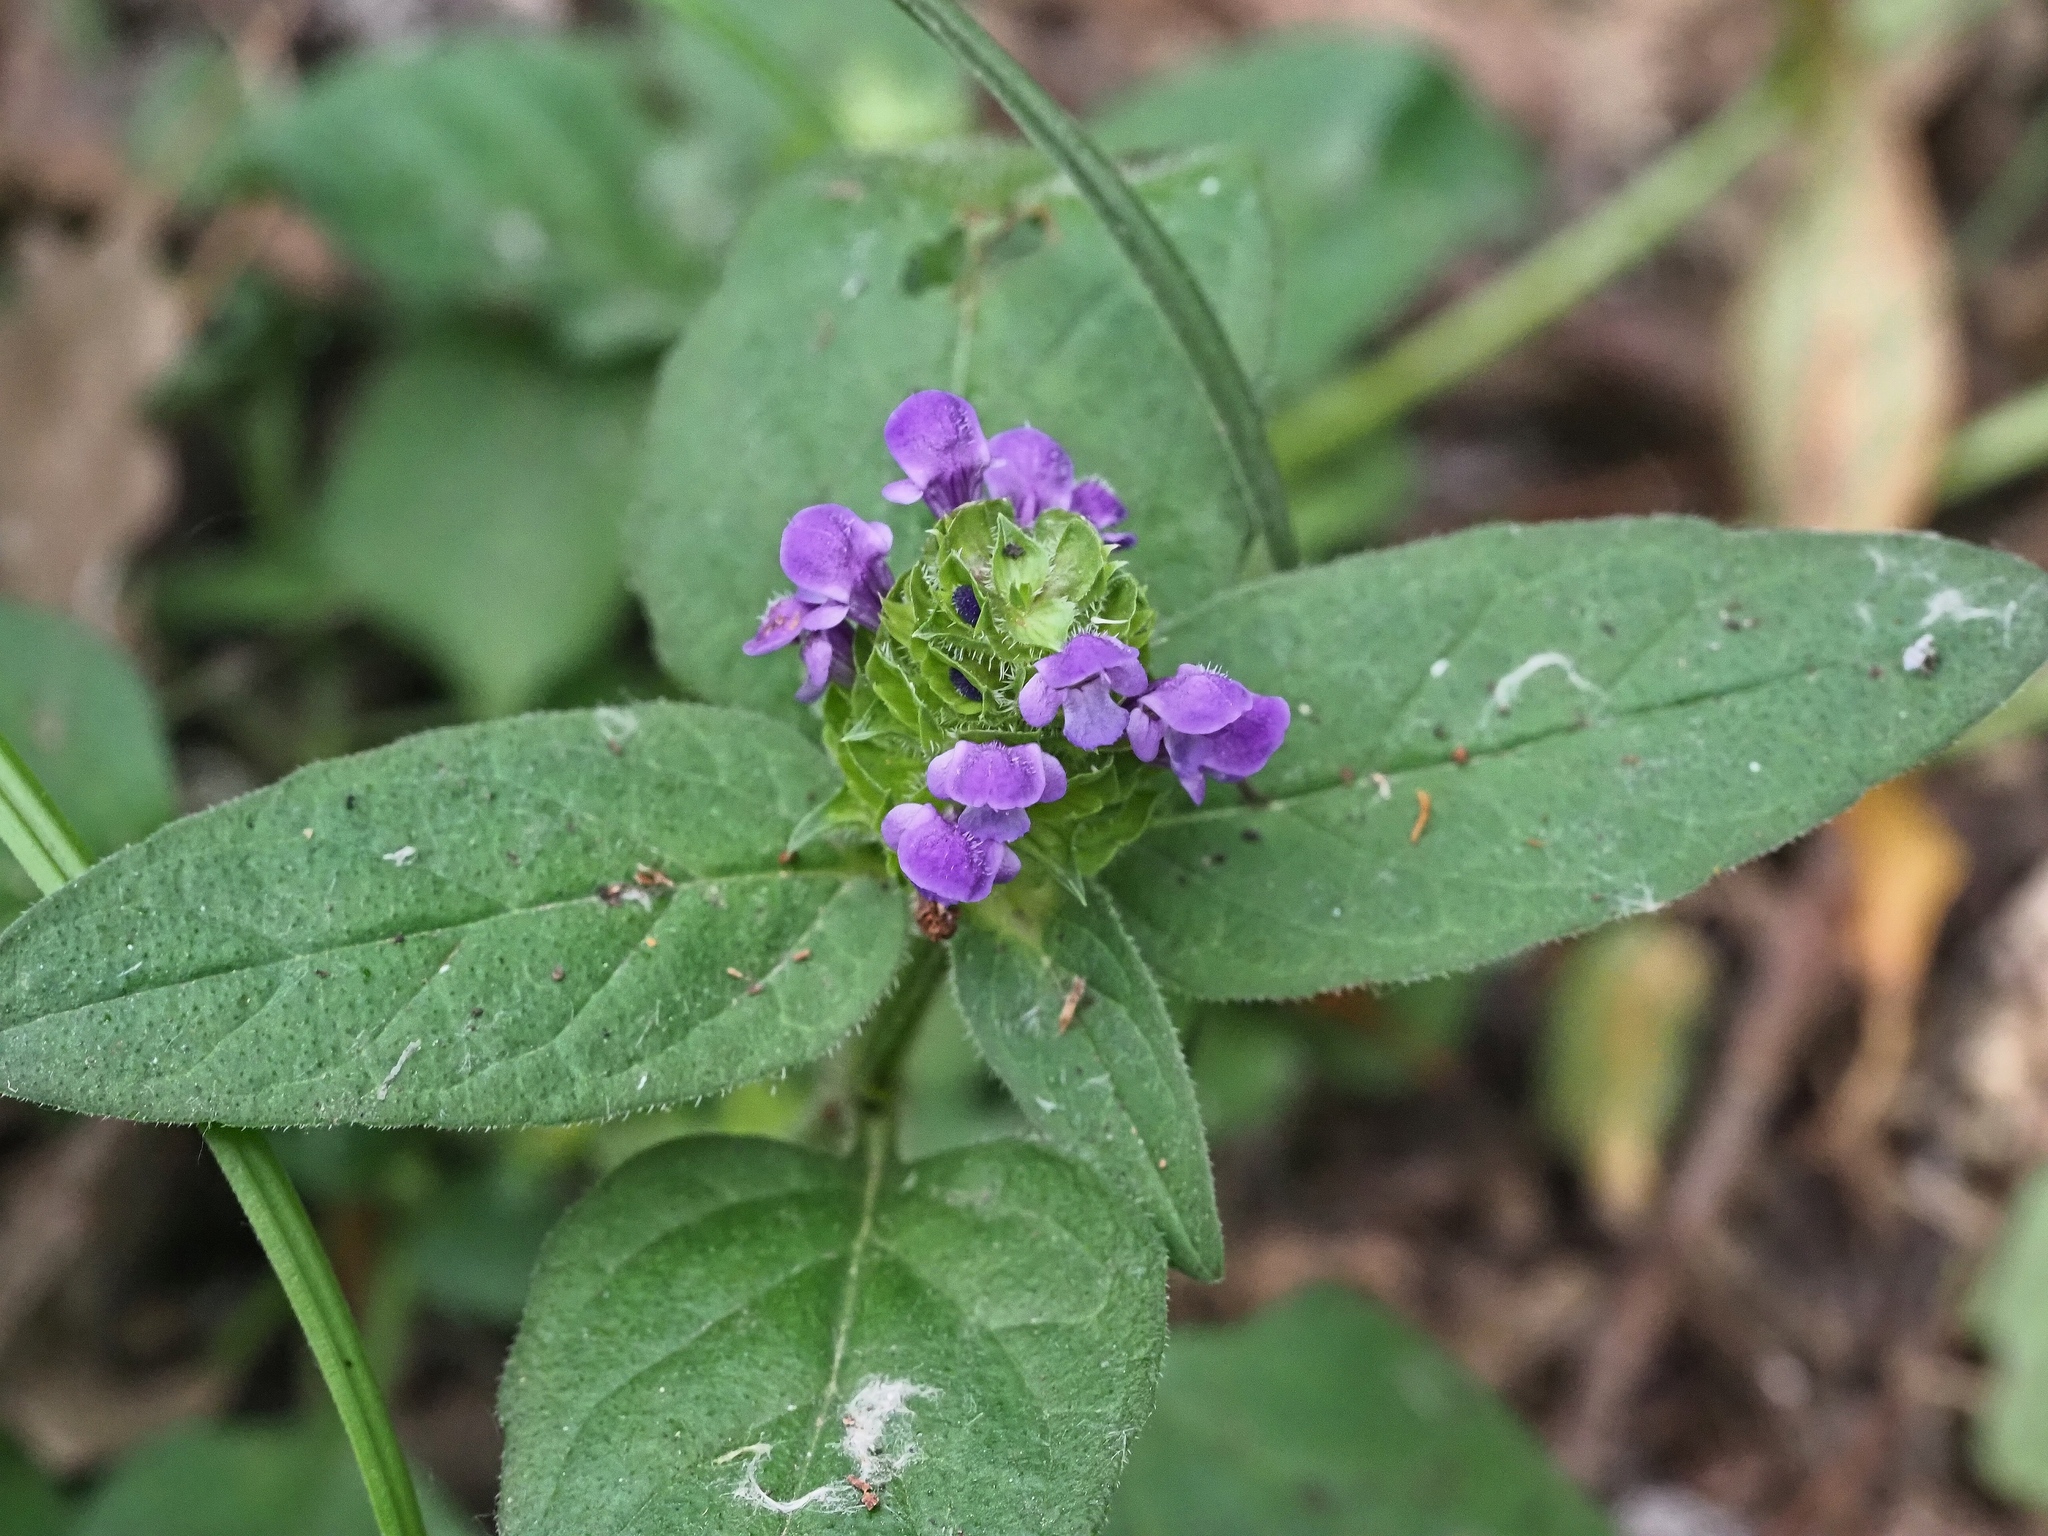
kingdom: Plantae
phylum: Tracheophyta
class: Magnoliopsida
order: Lamiales
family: Lamiaceae
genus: Prunella
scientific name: Prunella vulgaris
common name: Heal-all
